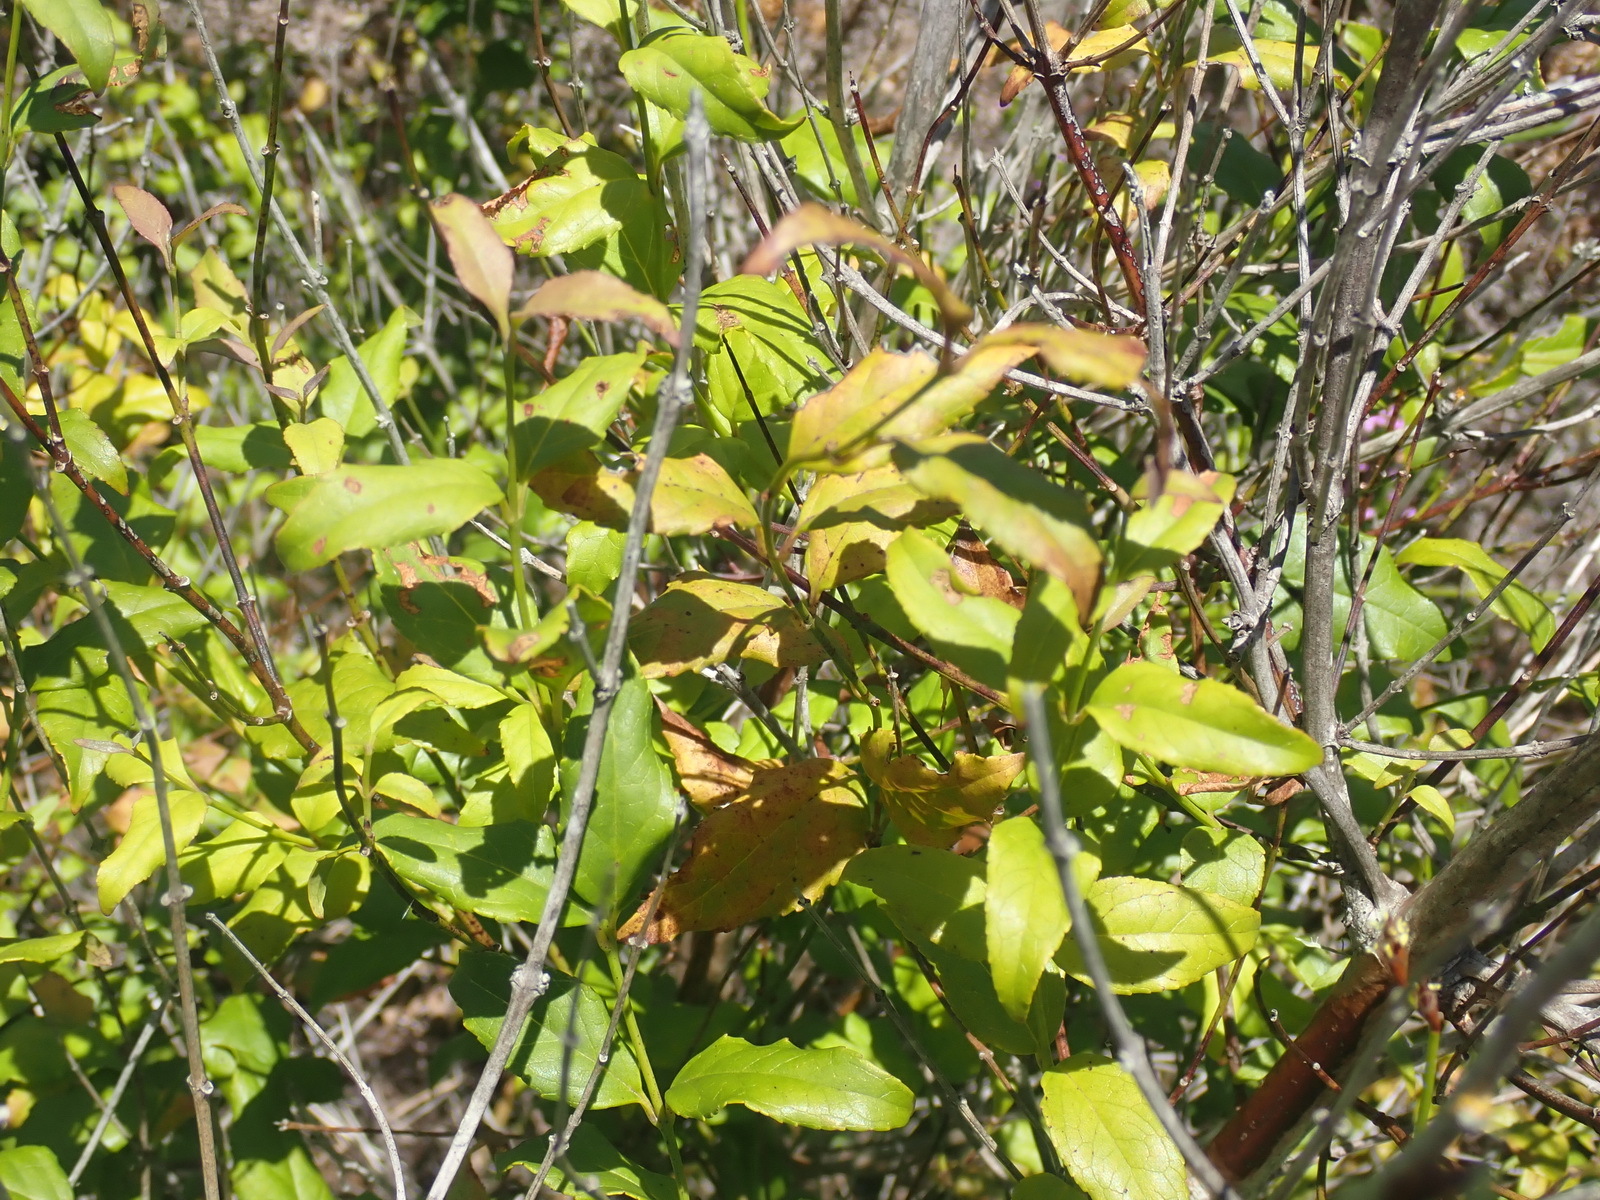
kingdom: Plantae
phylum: Tracheophyta
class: Magnoliopsida
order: Lamiales
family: Stilbaceae
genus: Halleria
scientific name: Halleria lucida
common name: Tree fuschia
